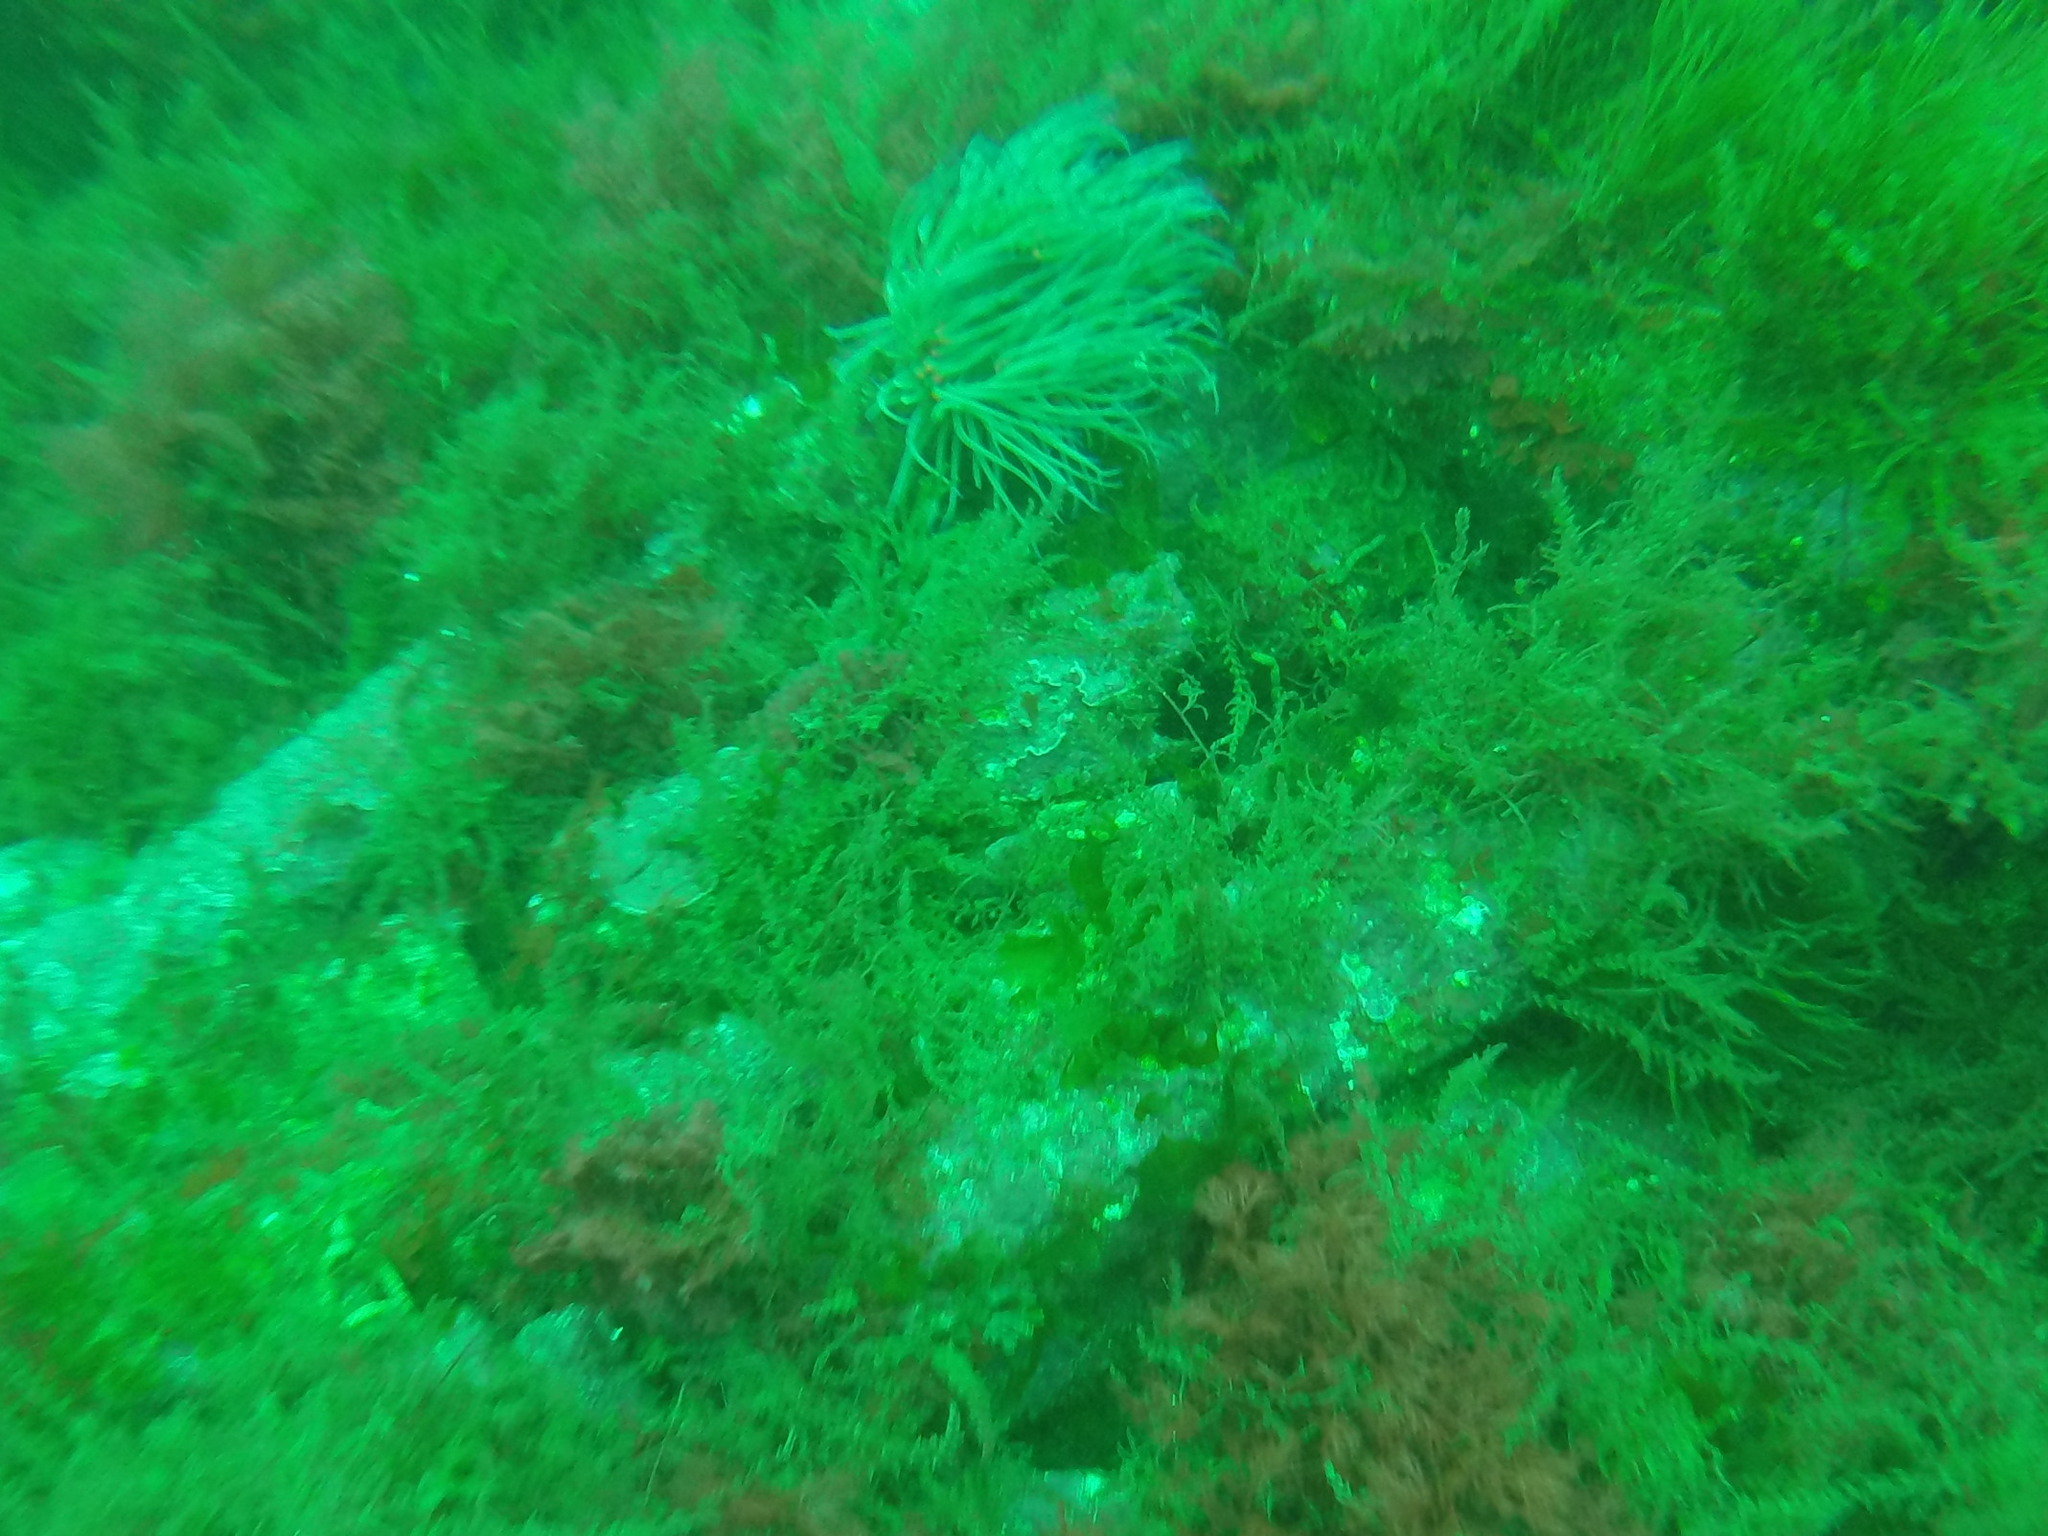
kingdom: Animalia
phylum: Cnidaria
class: Anthozoa
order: Actiniaria
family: Actiniidae
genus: Anemonia
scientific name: Anemonia viridis
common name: Snakelocks anemone
